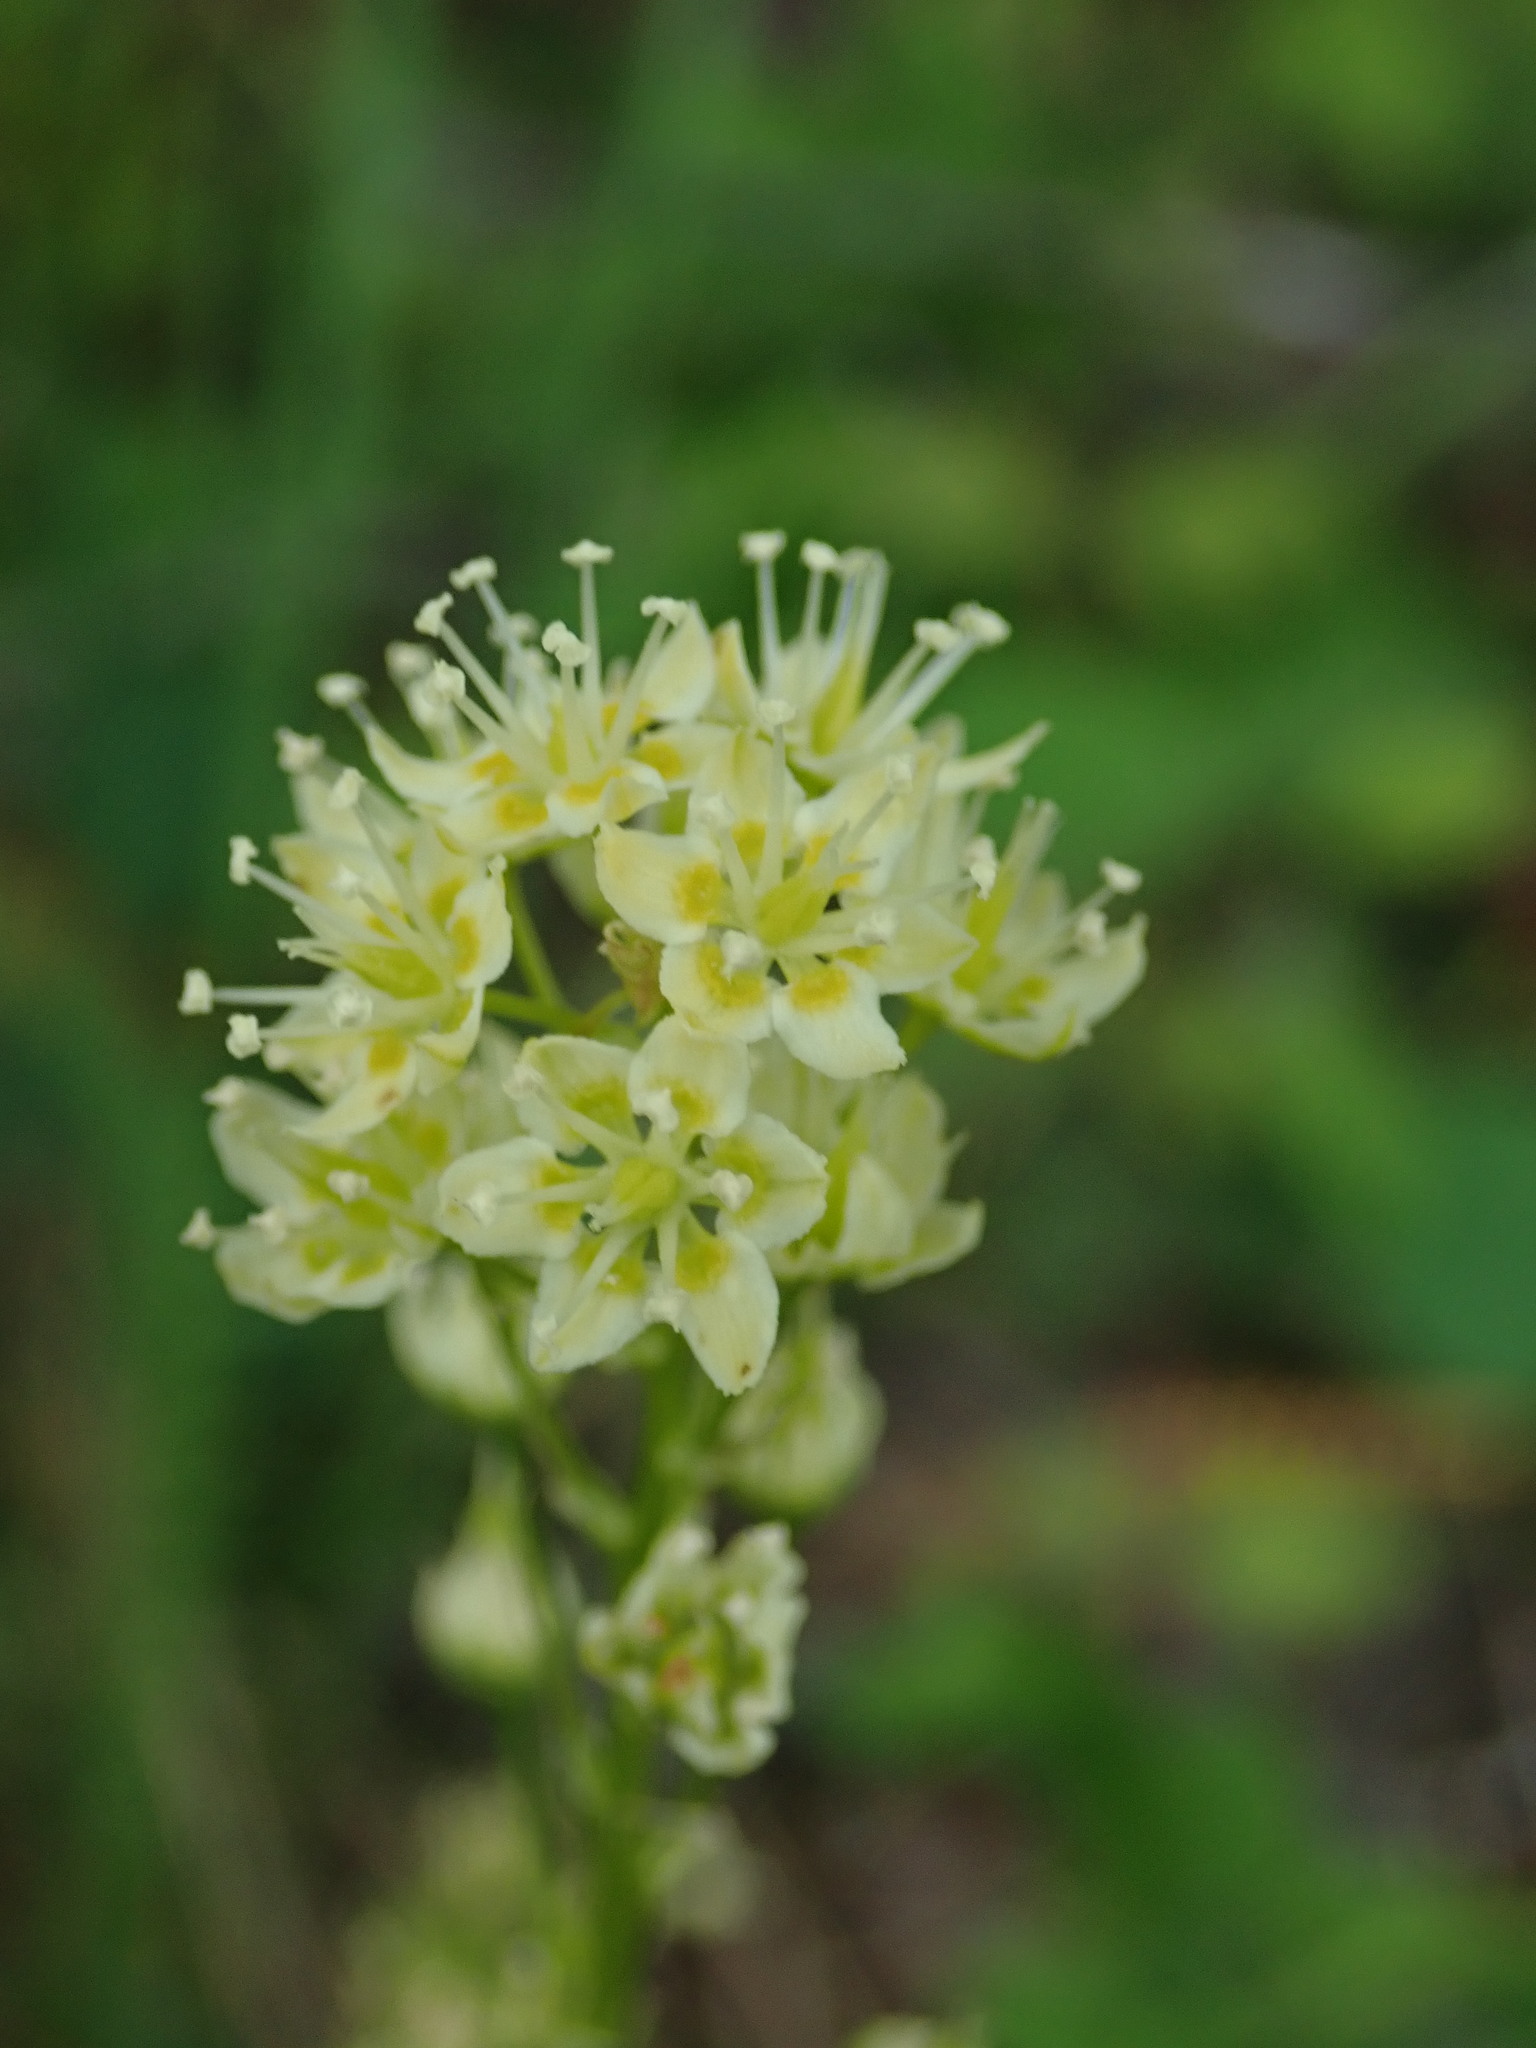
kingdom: Plantae
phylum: Tracheophyta
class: Liliopsida
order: Liliales
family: Melanthiaceae
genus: Toxicoscordion
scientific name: Toxicoscordion venenosum
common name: Meadow death camas
